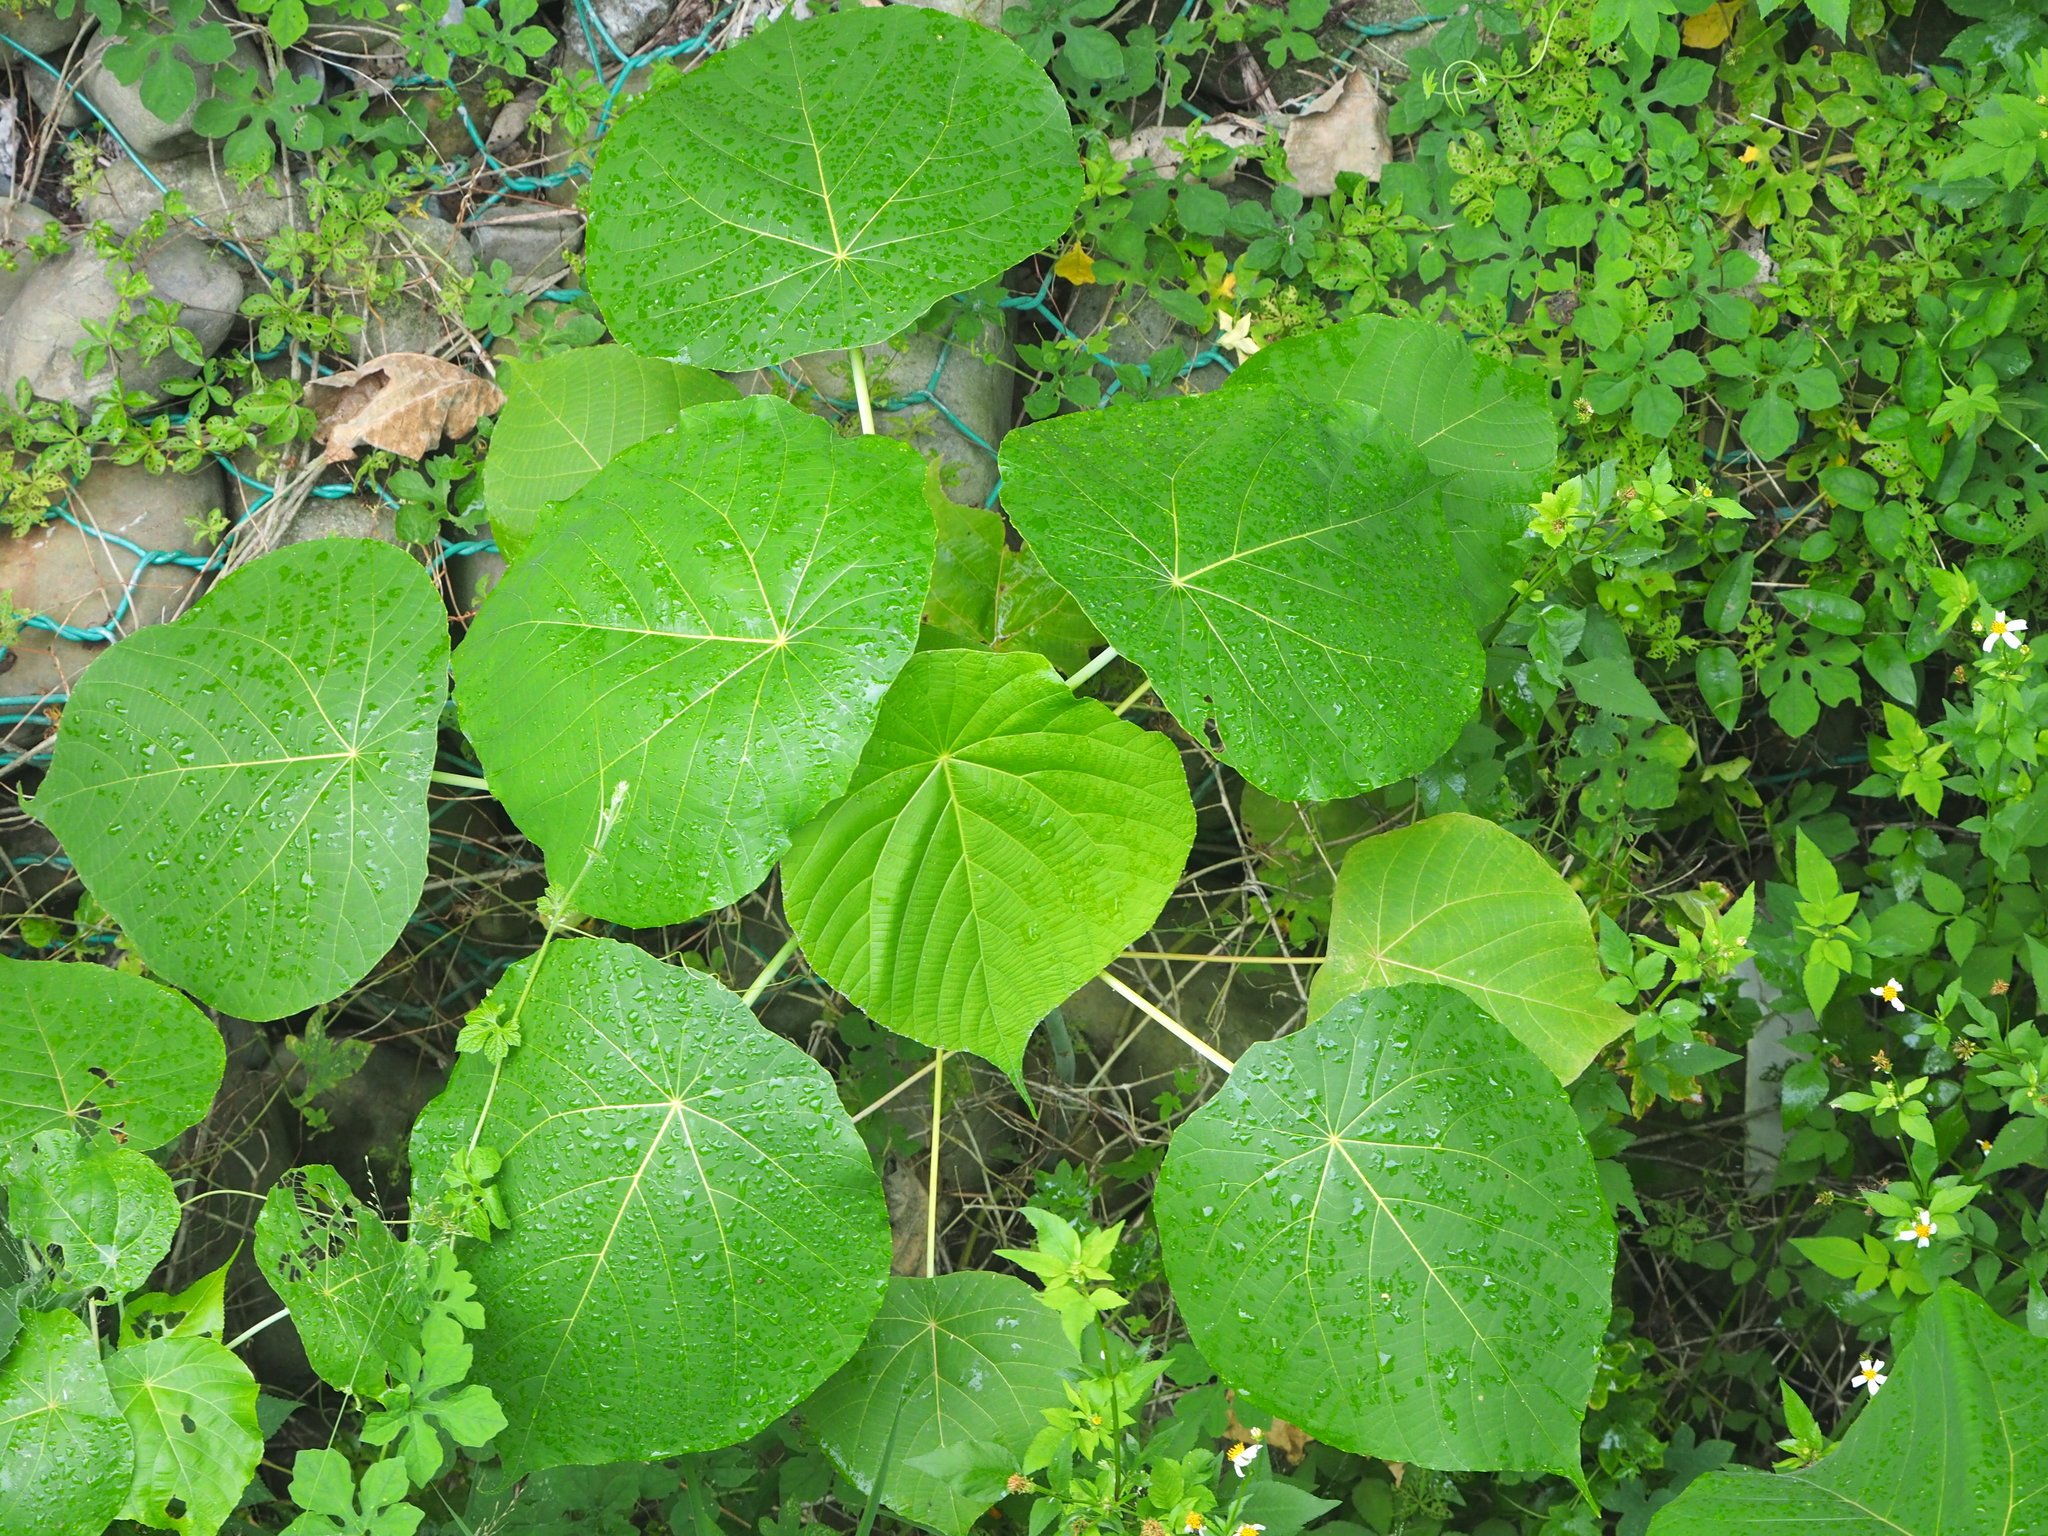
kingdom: Plantae
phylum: Tracheophyta
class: Magnoliopsida
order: Malpighiales
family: Euphorbiaceae
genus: Macaranga
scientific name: Macaranga tanarius
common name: Parasol leaf tree
